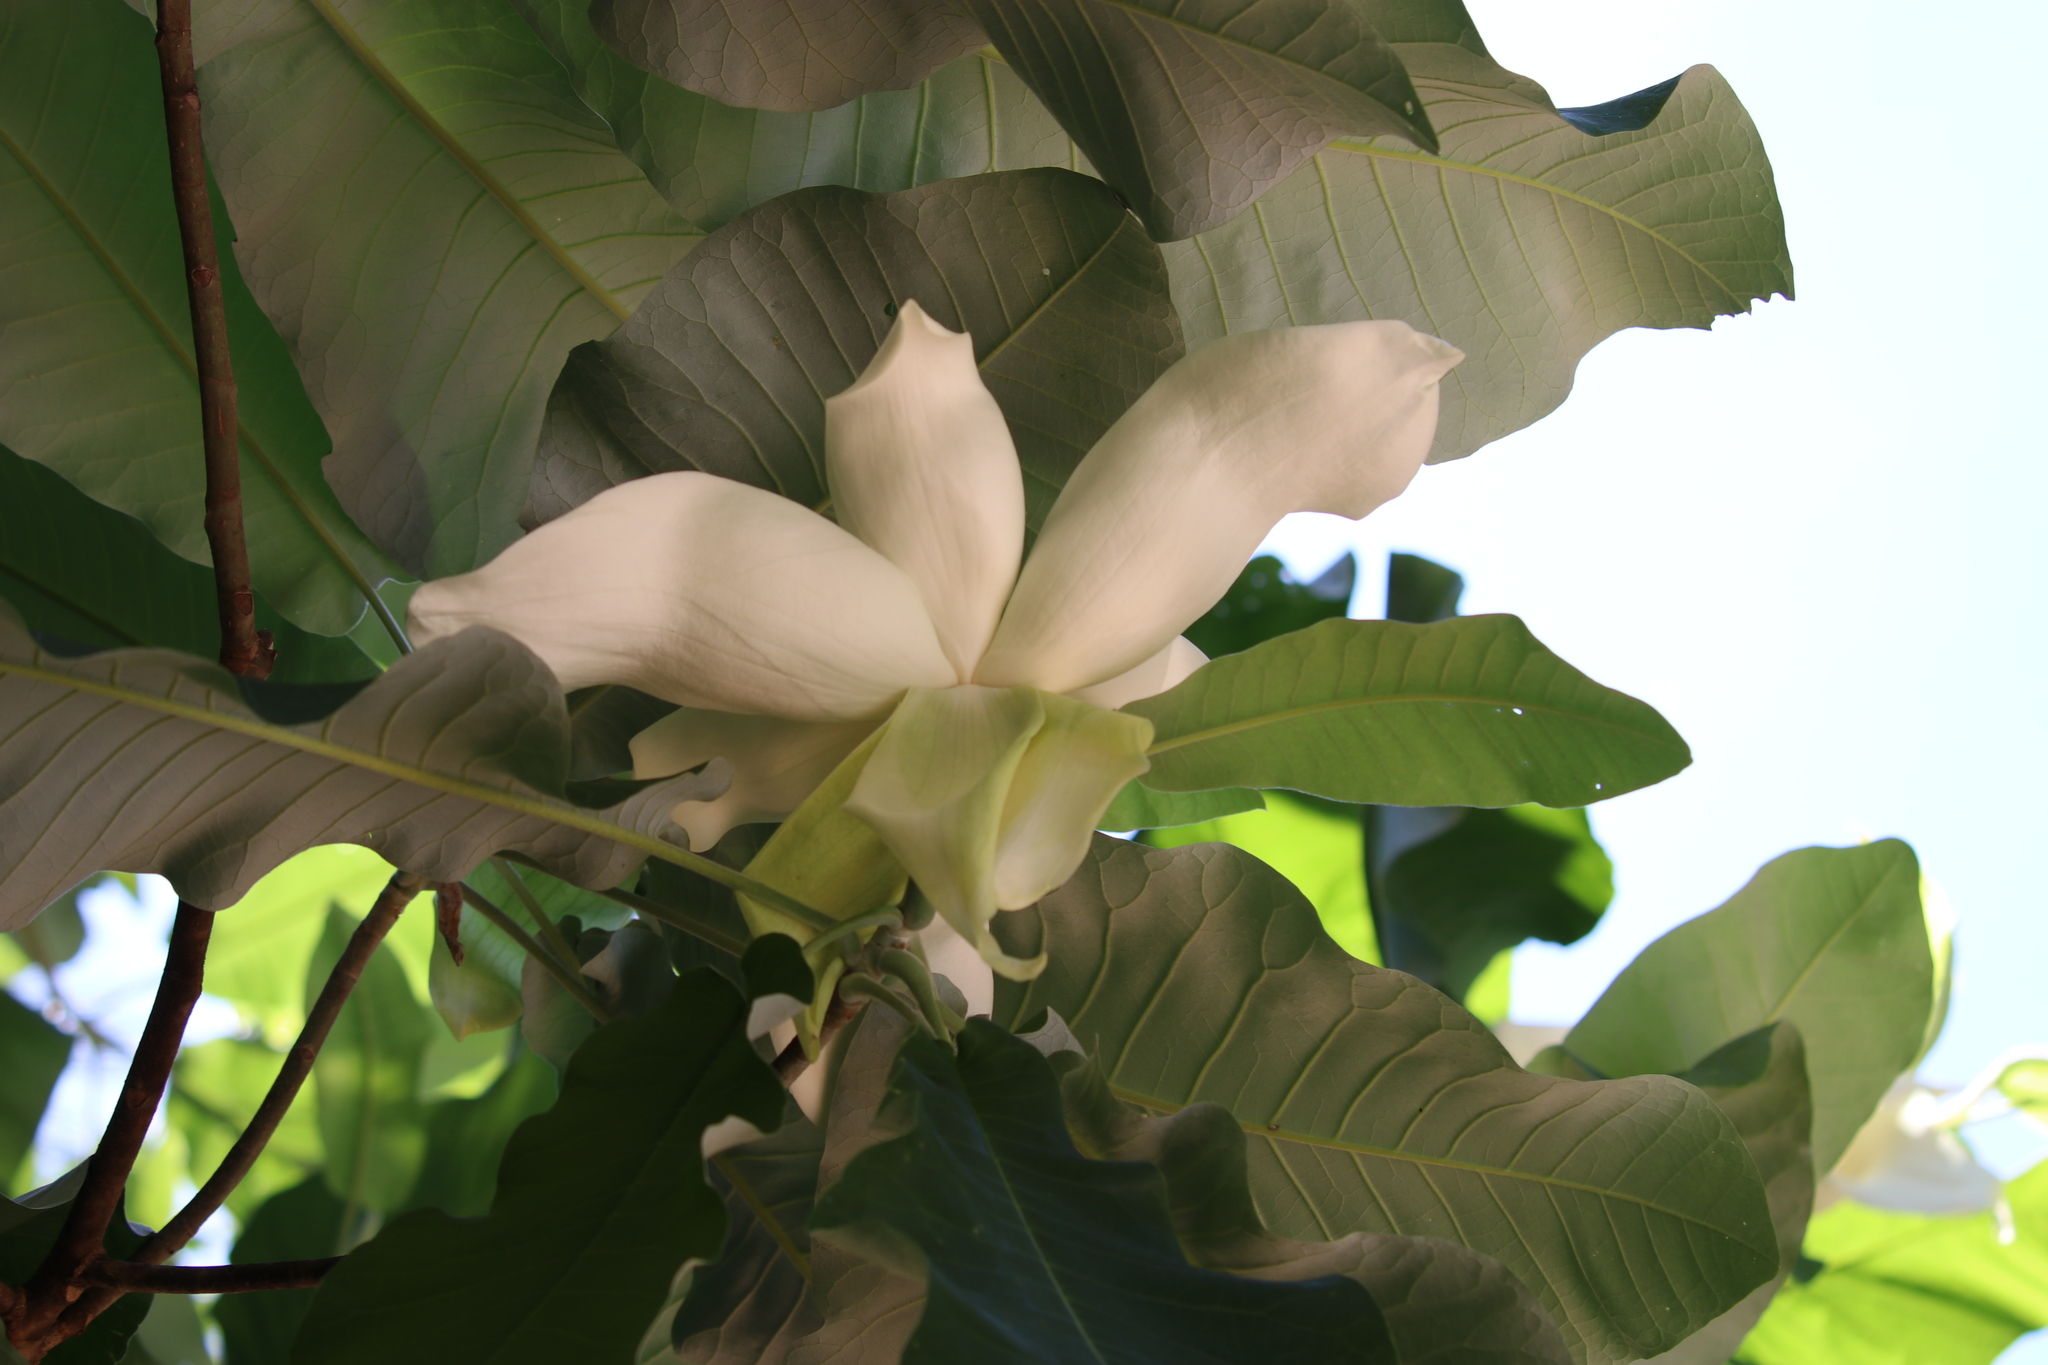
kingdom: Plantae
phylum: Tracheophyta
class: Magnoliopsida
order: Magnoliales
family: Magnoliaceae
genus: Magnolia
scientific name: Magnolia macrophylla
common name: Big-leaf magnolia
